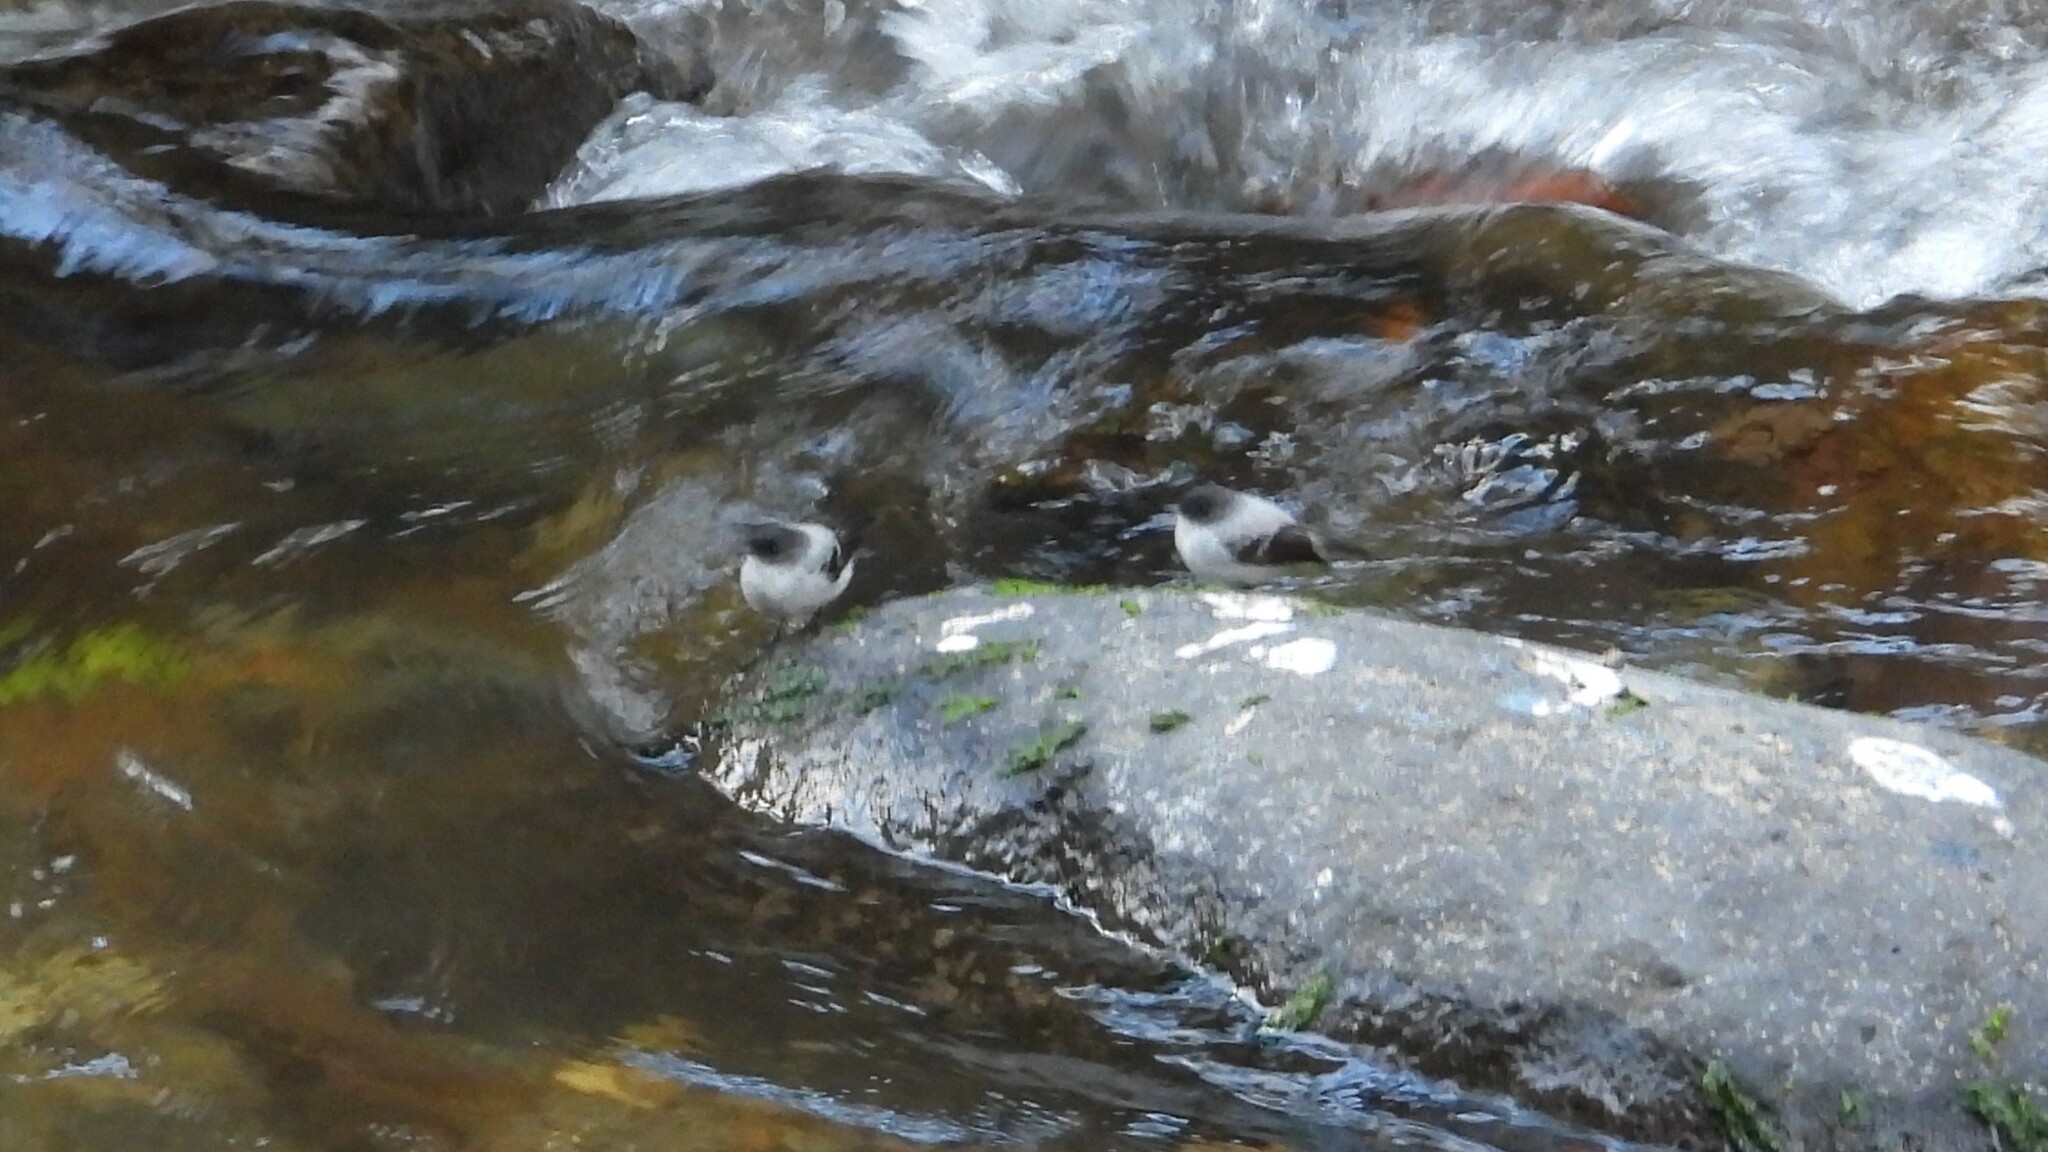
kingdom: Animalia
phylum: Chordata
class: Aves
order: Passeriformes
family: Tyrannidae
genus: Serpophaga
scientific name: Serpophaga cinerea
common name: Torrent tyrannulet
